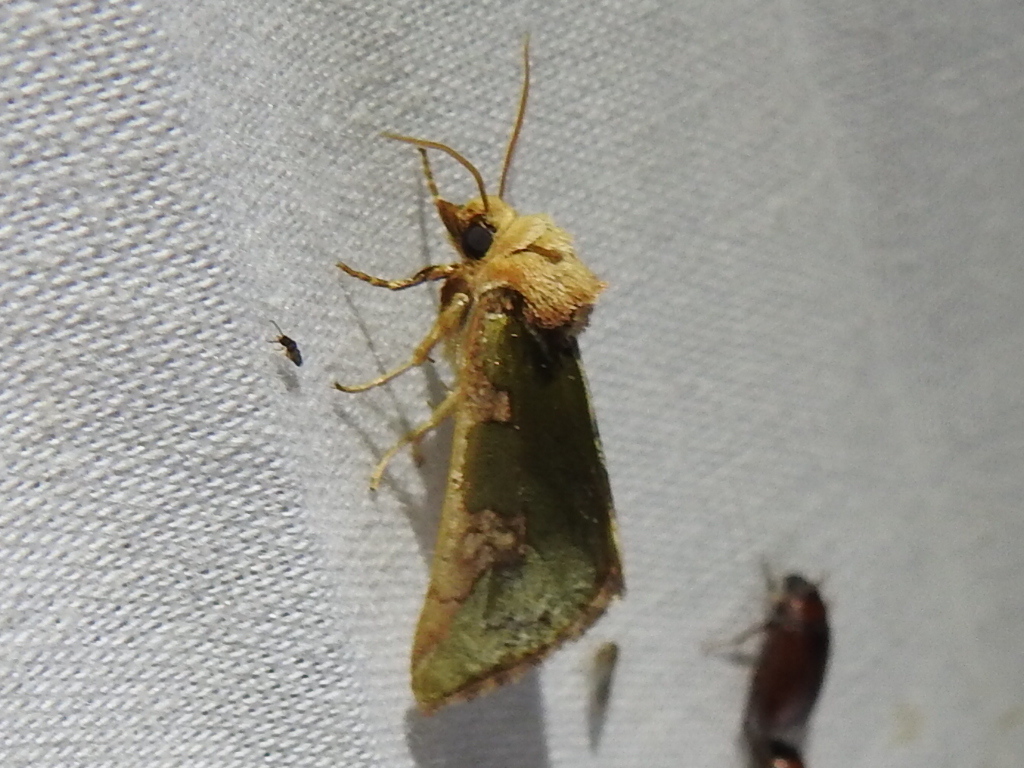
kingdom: Animalia
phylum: Arthropoda
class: Insecta
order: Lepidoptera
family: Noctuidae
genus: Chalcopasta
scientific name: Chalcopasta territans
